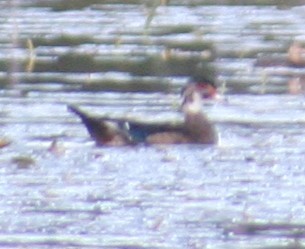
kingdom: Animalia
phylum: Chordata
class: Aves
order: Anseriformes
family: Anatidae
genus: Aix
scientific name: Aix sponsa
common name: Wood duck
